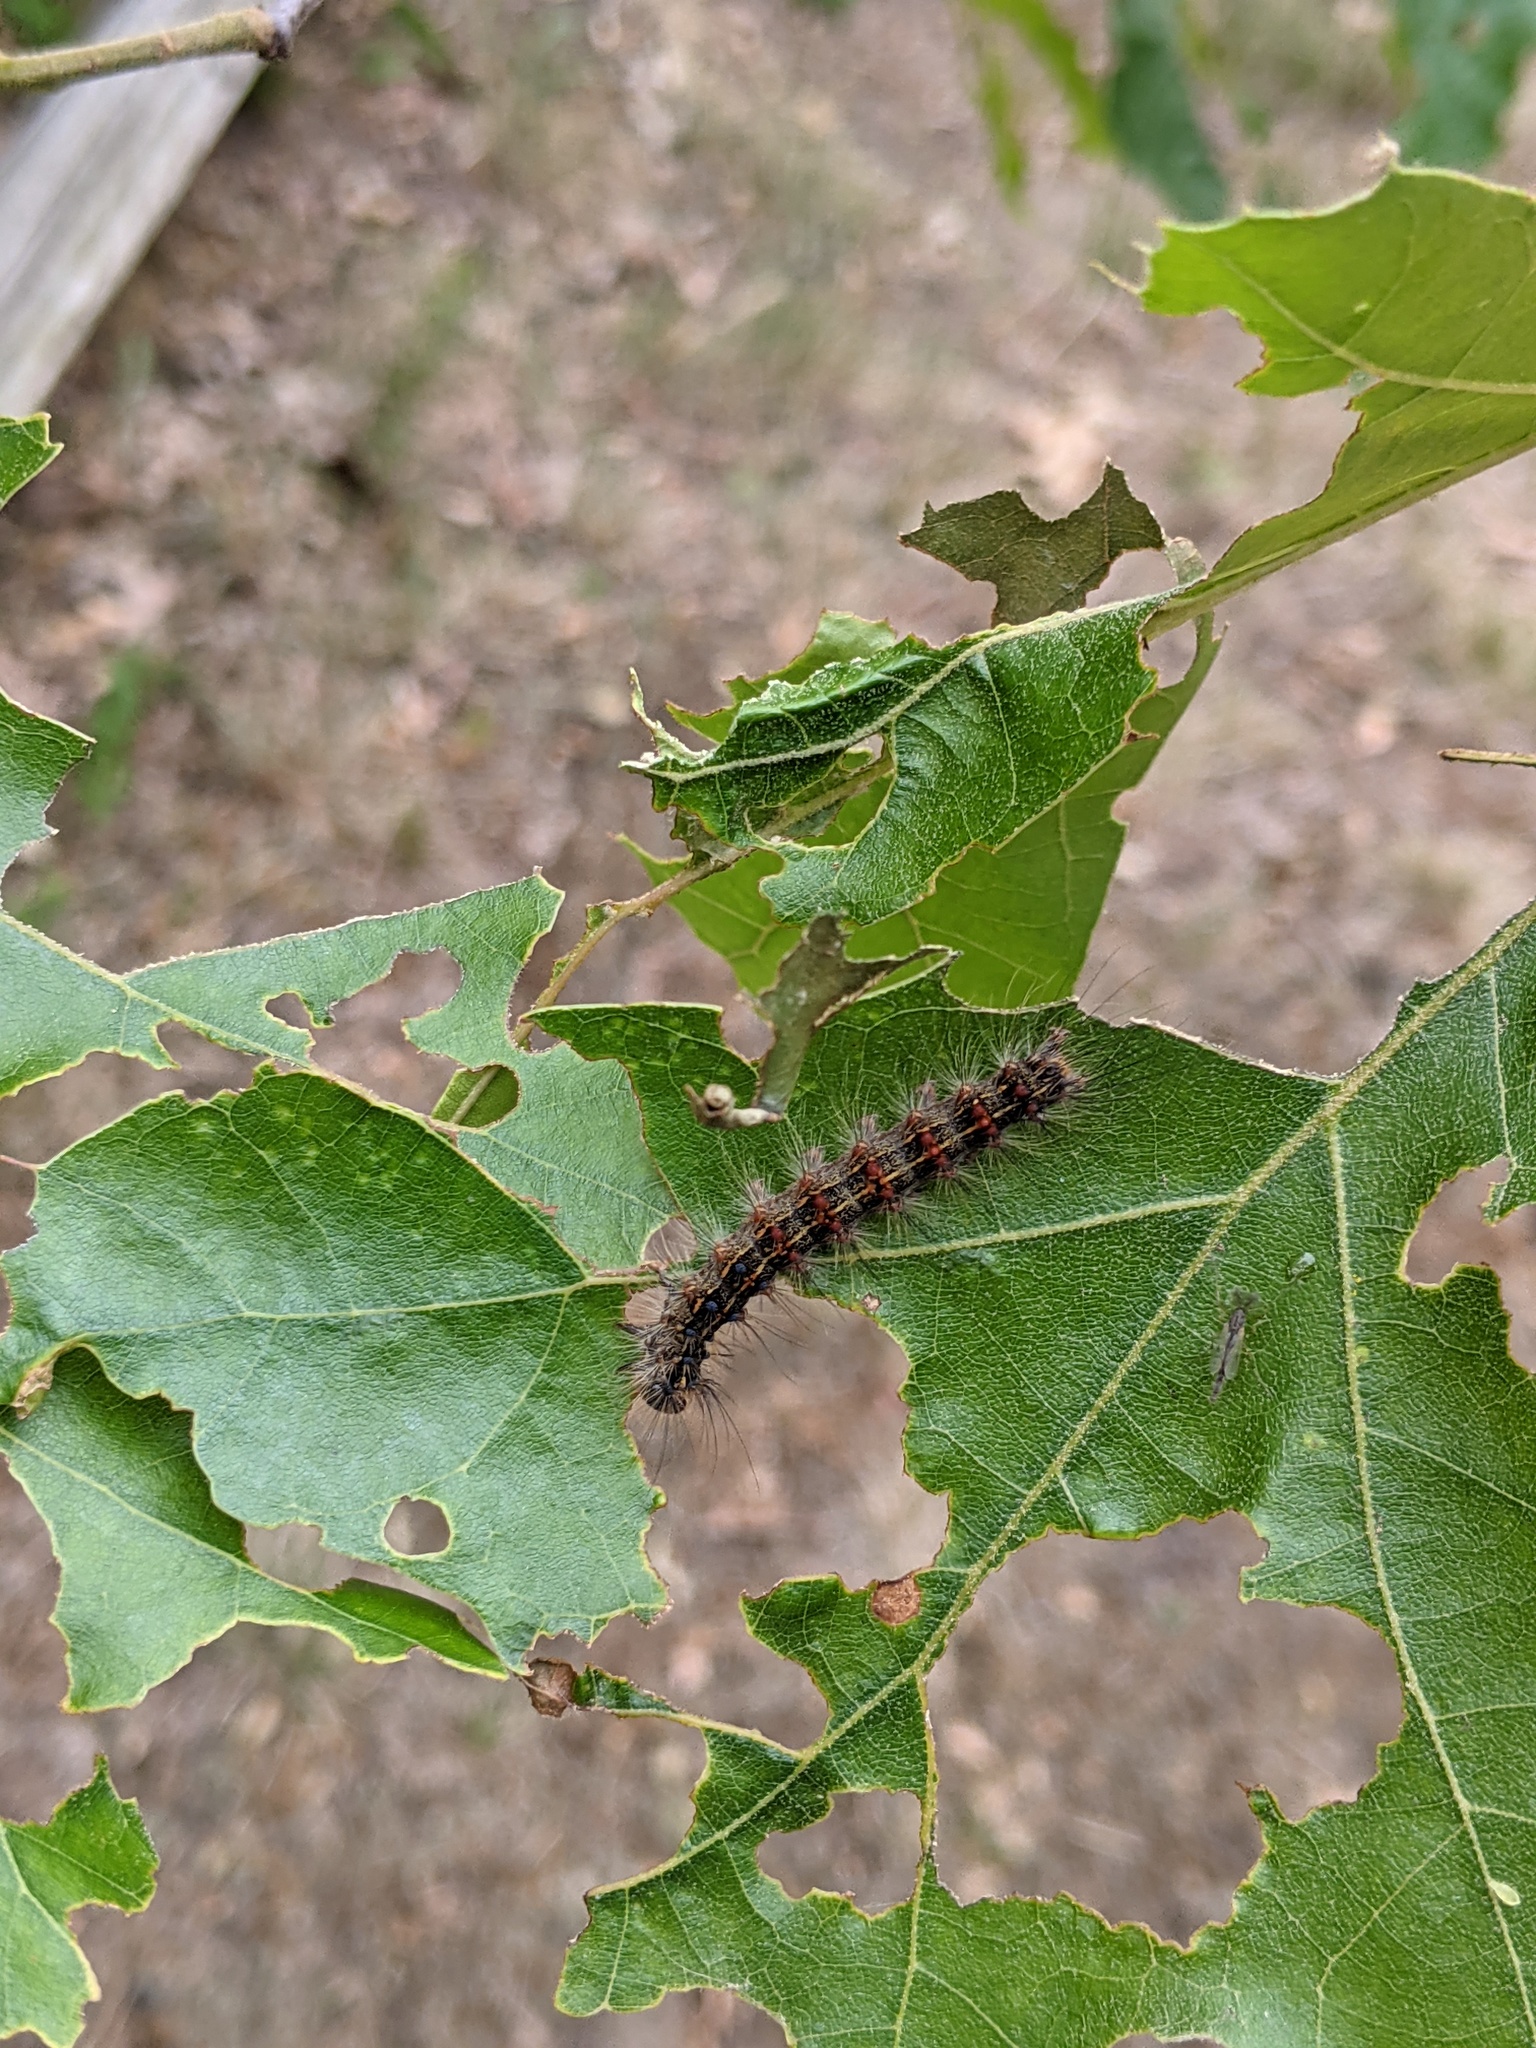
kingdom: Animalia
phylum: Arthropoda
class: Insecta
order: Lepidoptera
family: Erebidae
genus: Lymantria
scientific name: Lymantria dispar
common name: Gypsy moth
